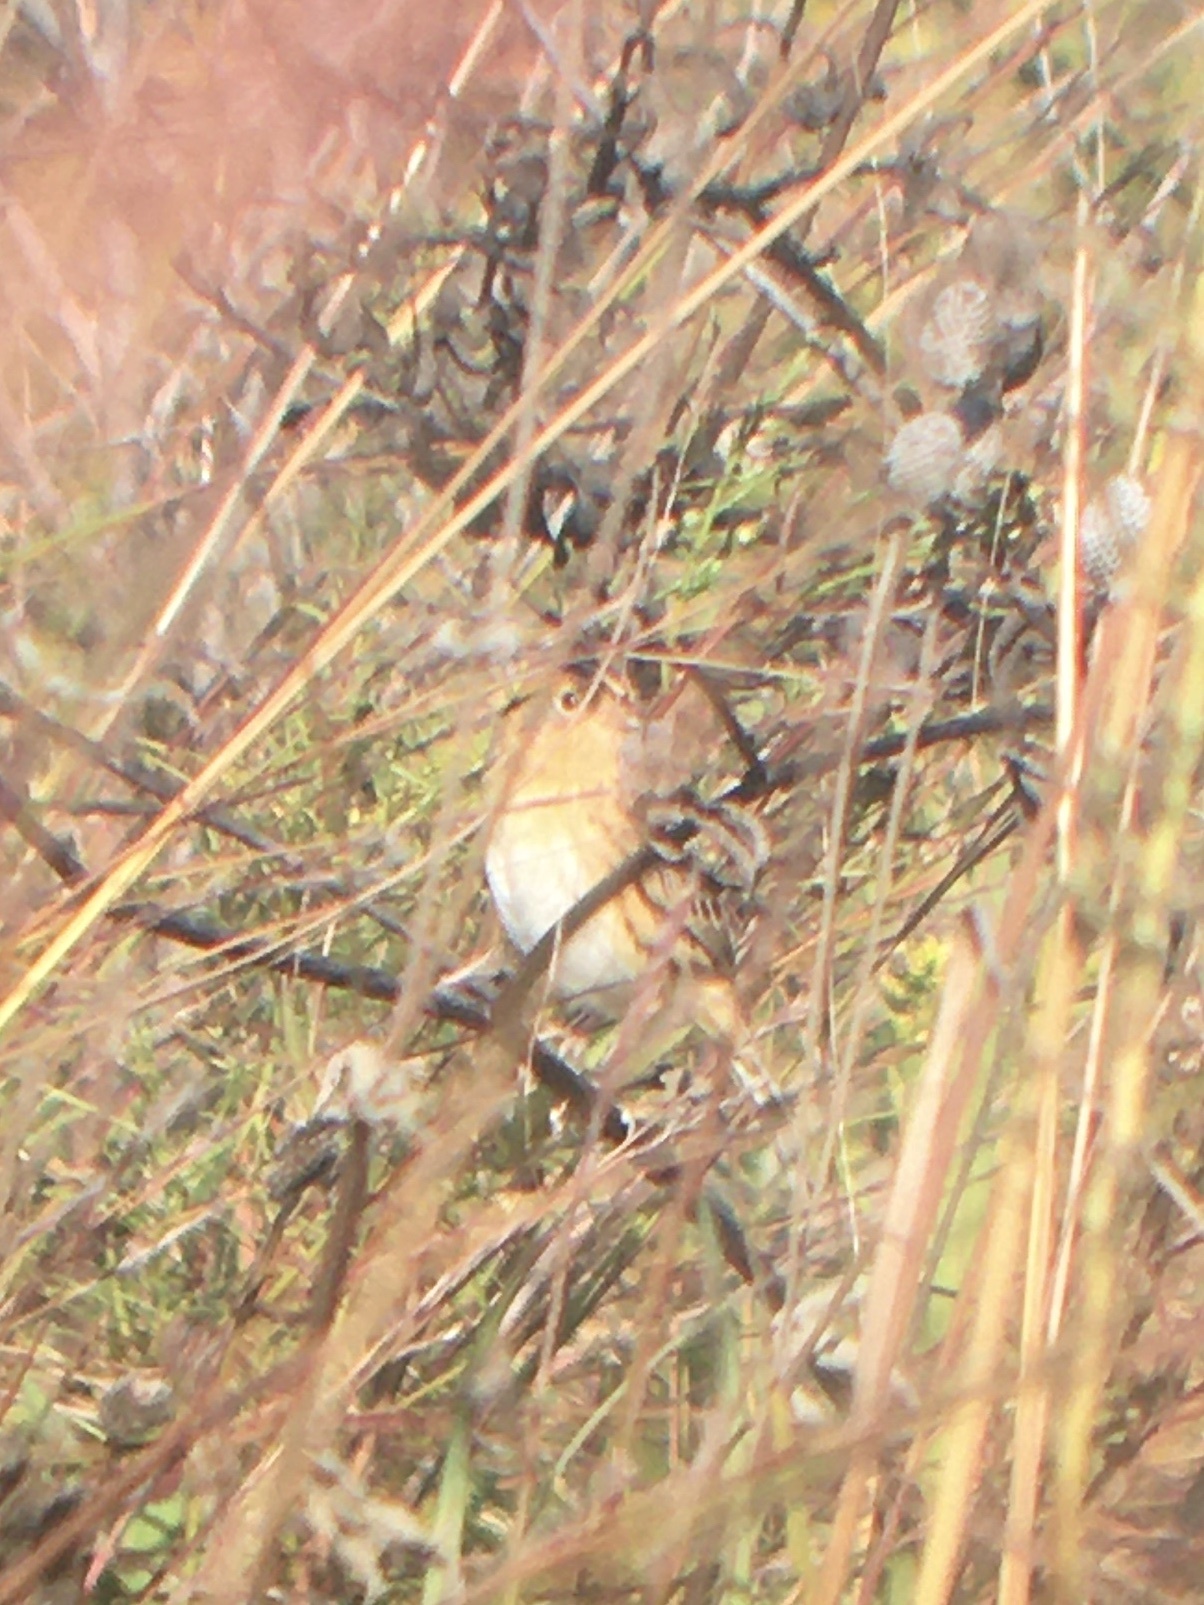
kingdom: Animalia
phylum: Chordata
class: Aves
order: Passeriformes
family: Passerellidae
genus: Ammospiza
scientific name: Ammospiza leconteii
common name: Le conte's sparrow
